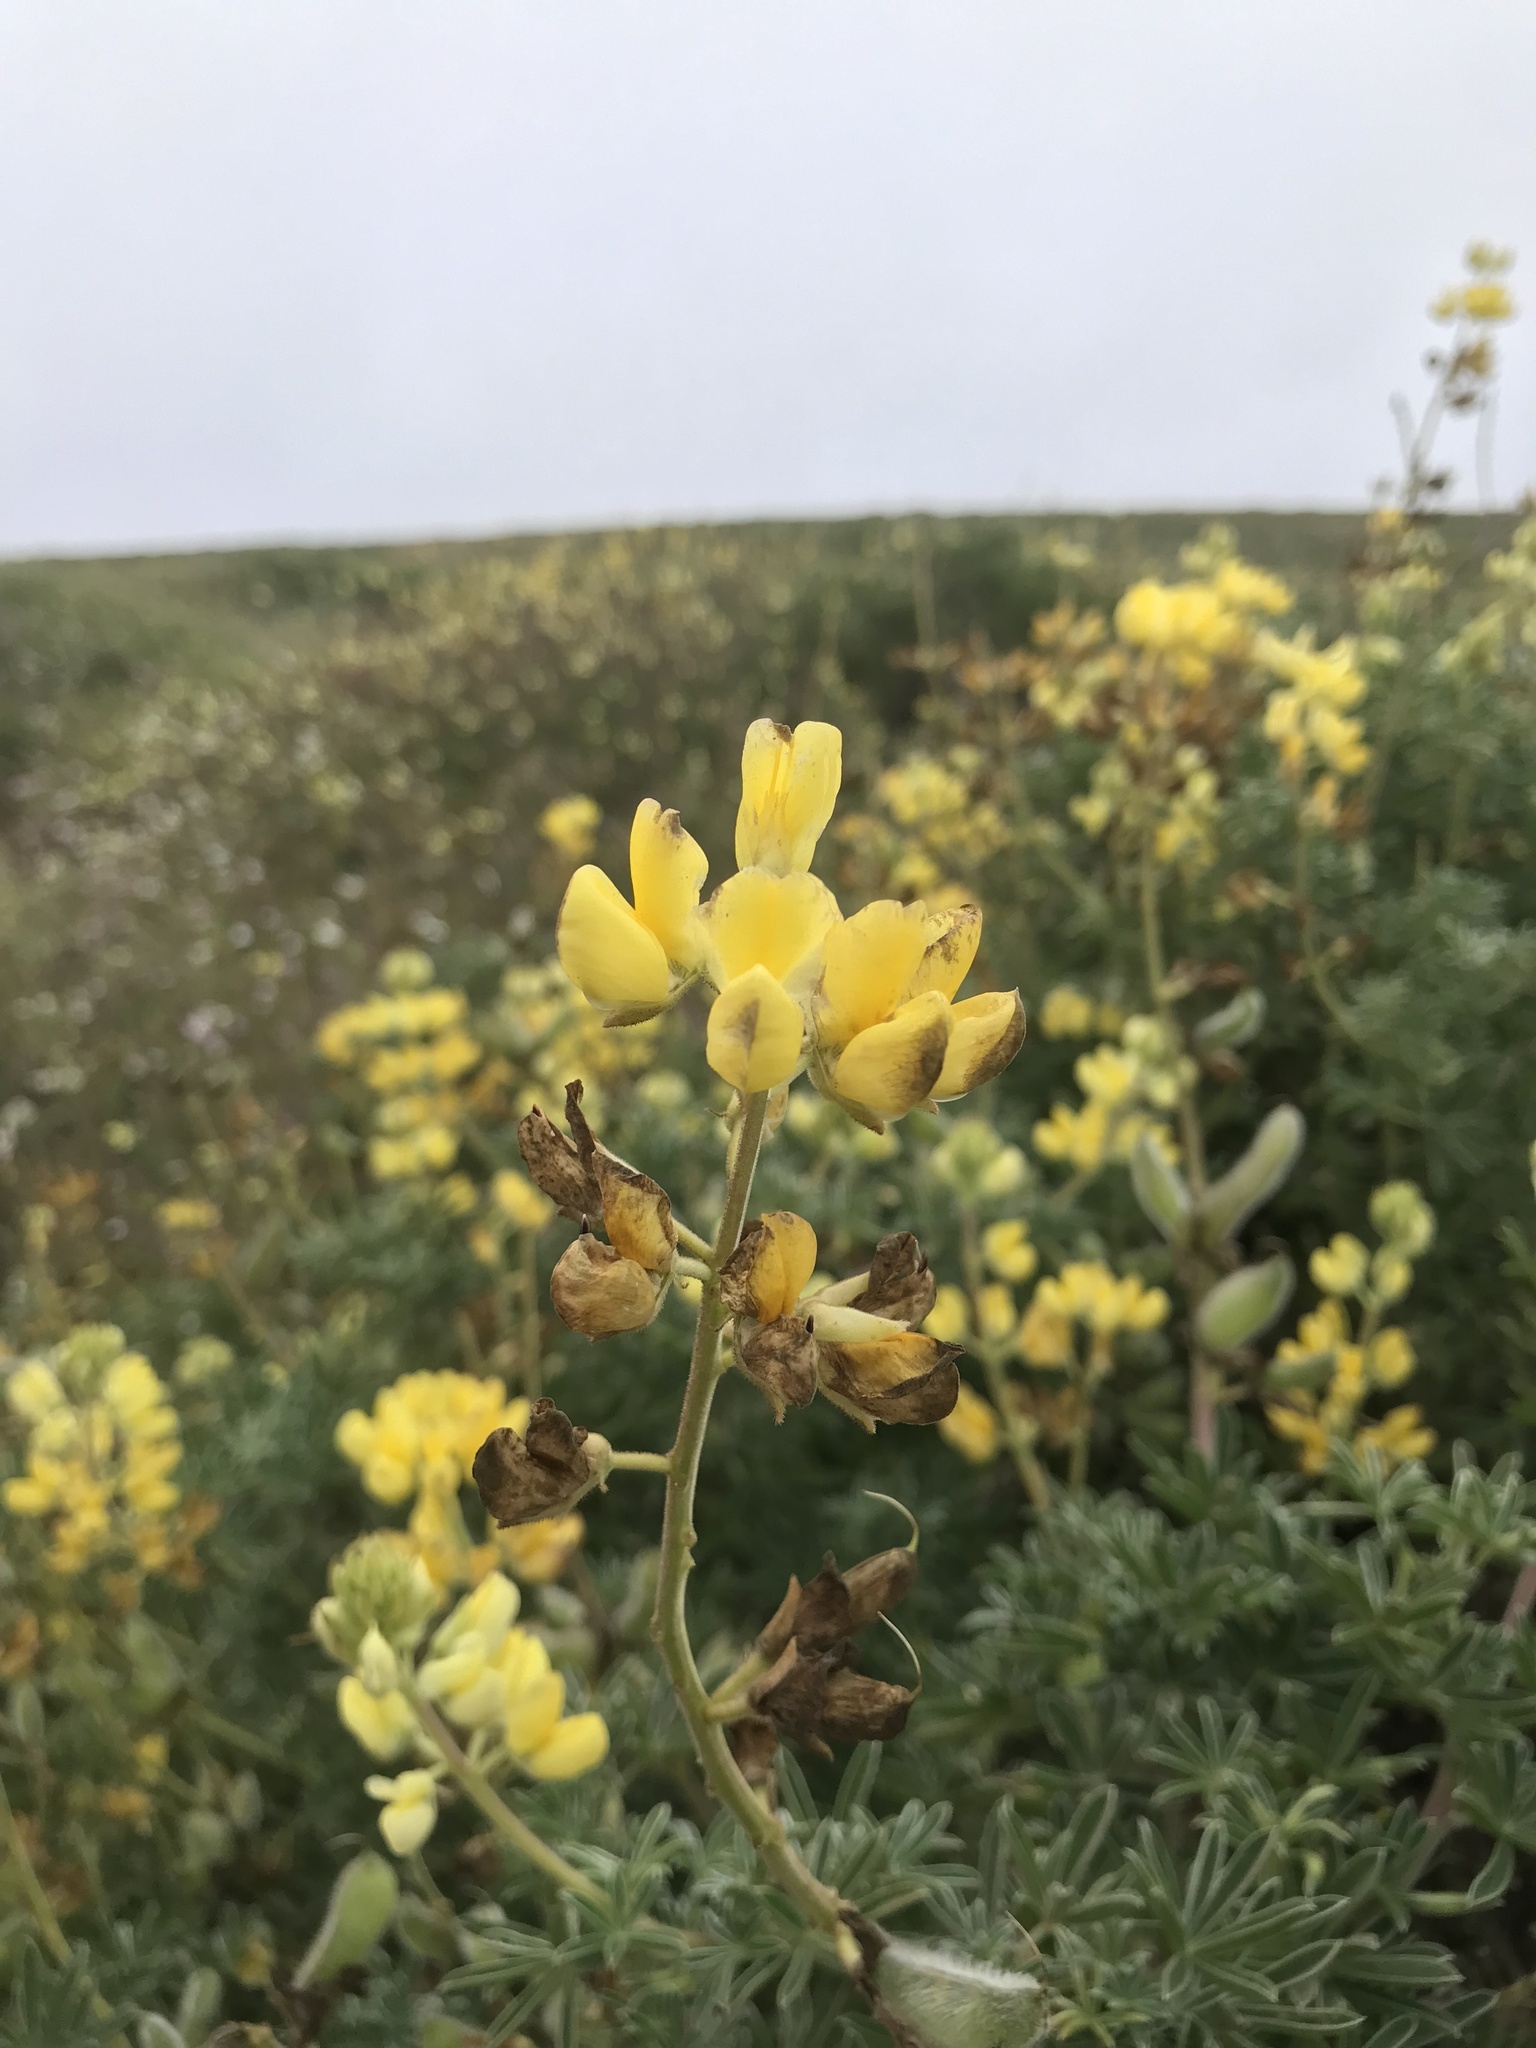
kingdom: Plantae
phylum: Tracheophyta
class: Magnoliopsida
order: Fabales
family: Fabaceae
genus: Lupinus
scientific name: Lupinus arboreus
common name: Yellow bush lupine
